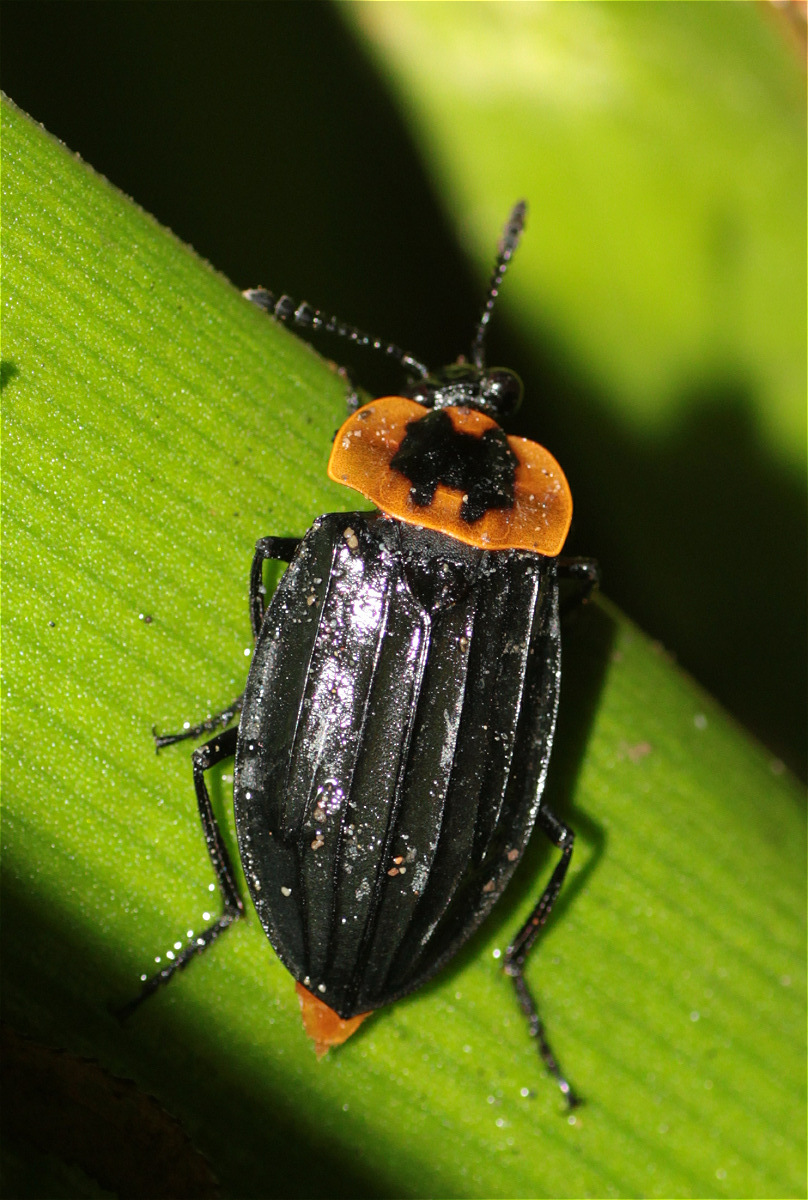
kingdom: Animalia
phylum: Arthropoda
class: Insecta
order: Coleoptera
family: Staphylinidae
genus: Oxelytrum
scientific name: Oxelytrum discicolle
